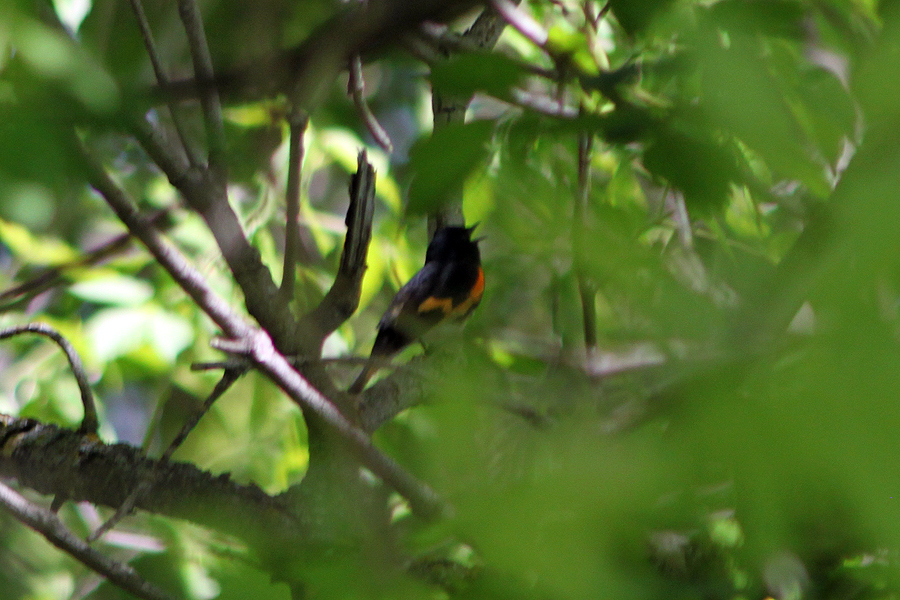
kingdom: Animalia
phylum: Chordata
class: Aves
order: Passeriformes
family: Parulidae
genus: Setophaga
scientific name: Setophaga ruticilla
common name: American redstart
